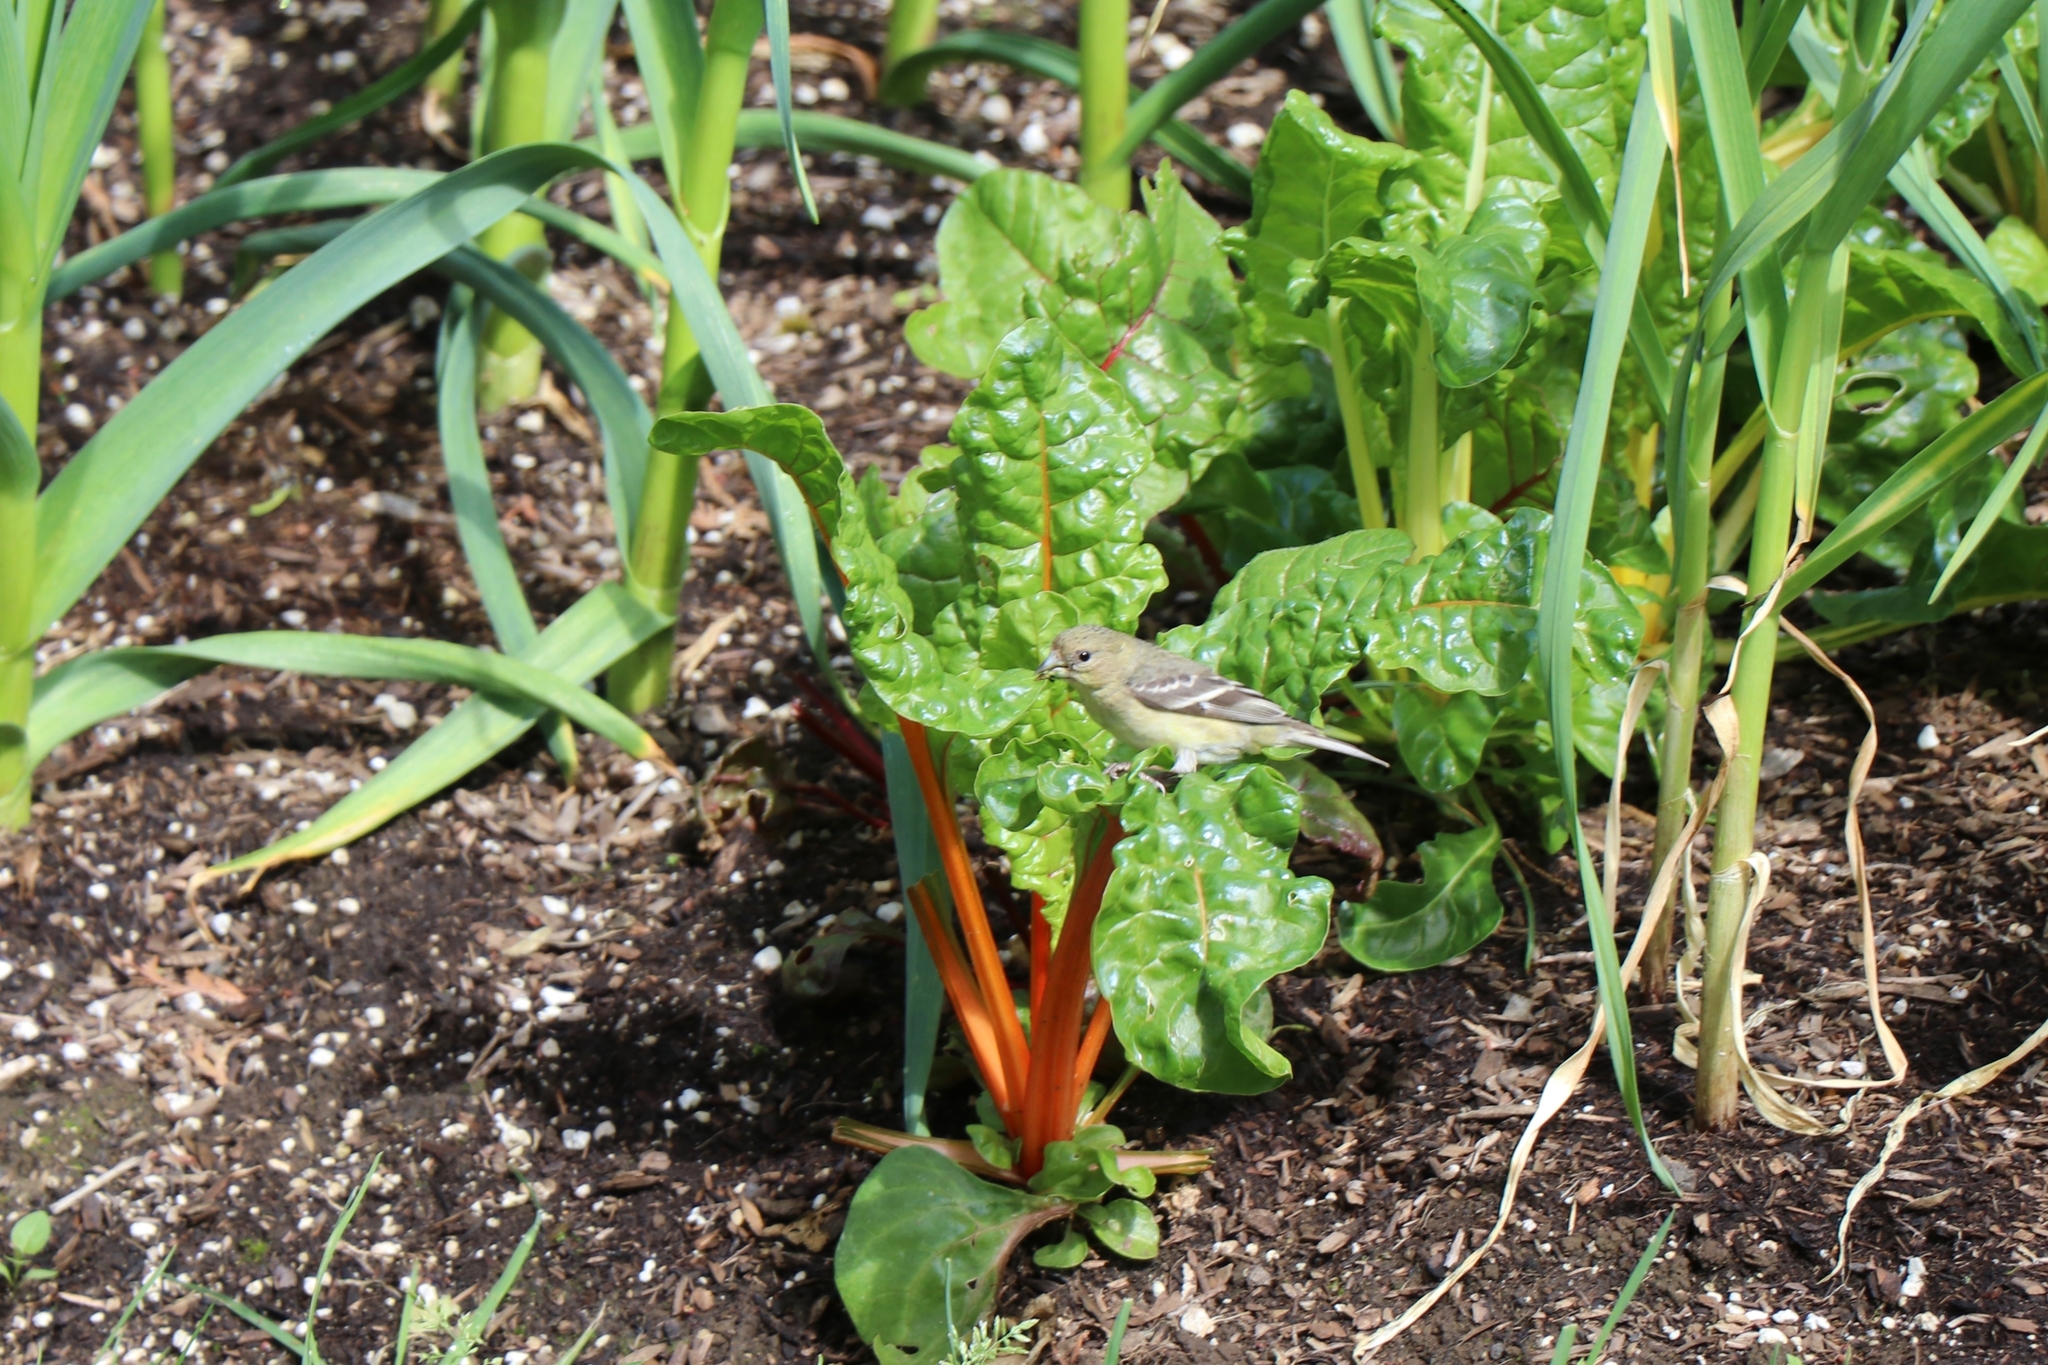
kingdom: Animalia
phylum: Chordata
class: Aves
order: Passeriformes
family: Fringillidae
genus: Spinus
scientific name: Spinus psaltria
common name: Lesser goldfinch
